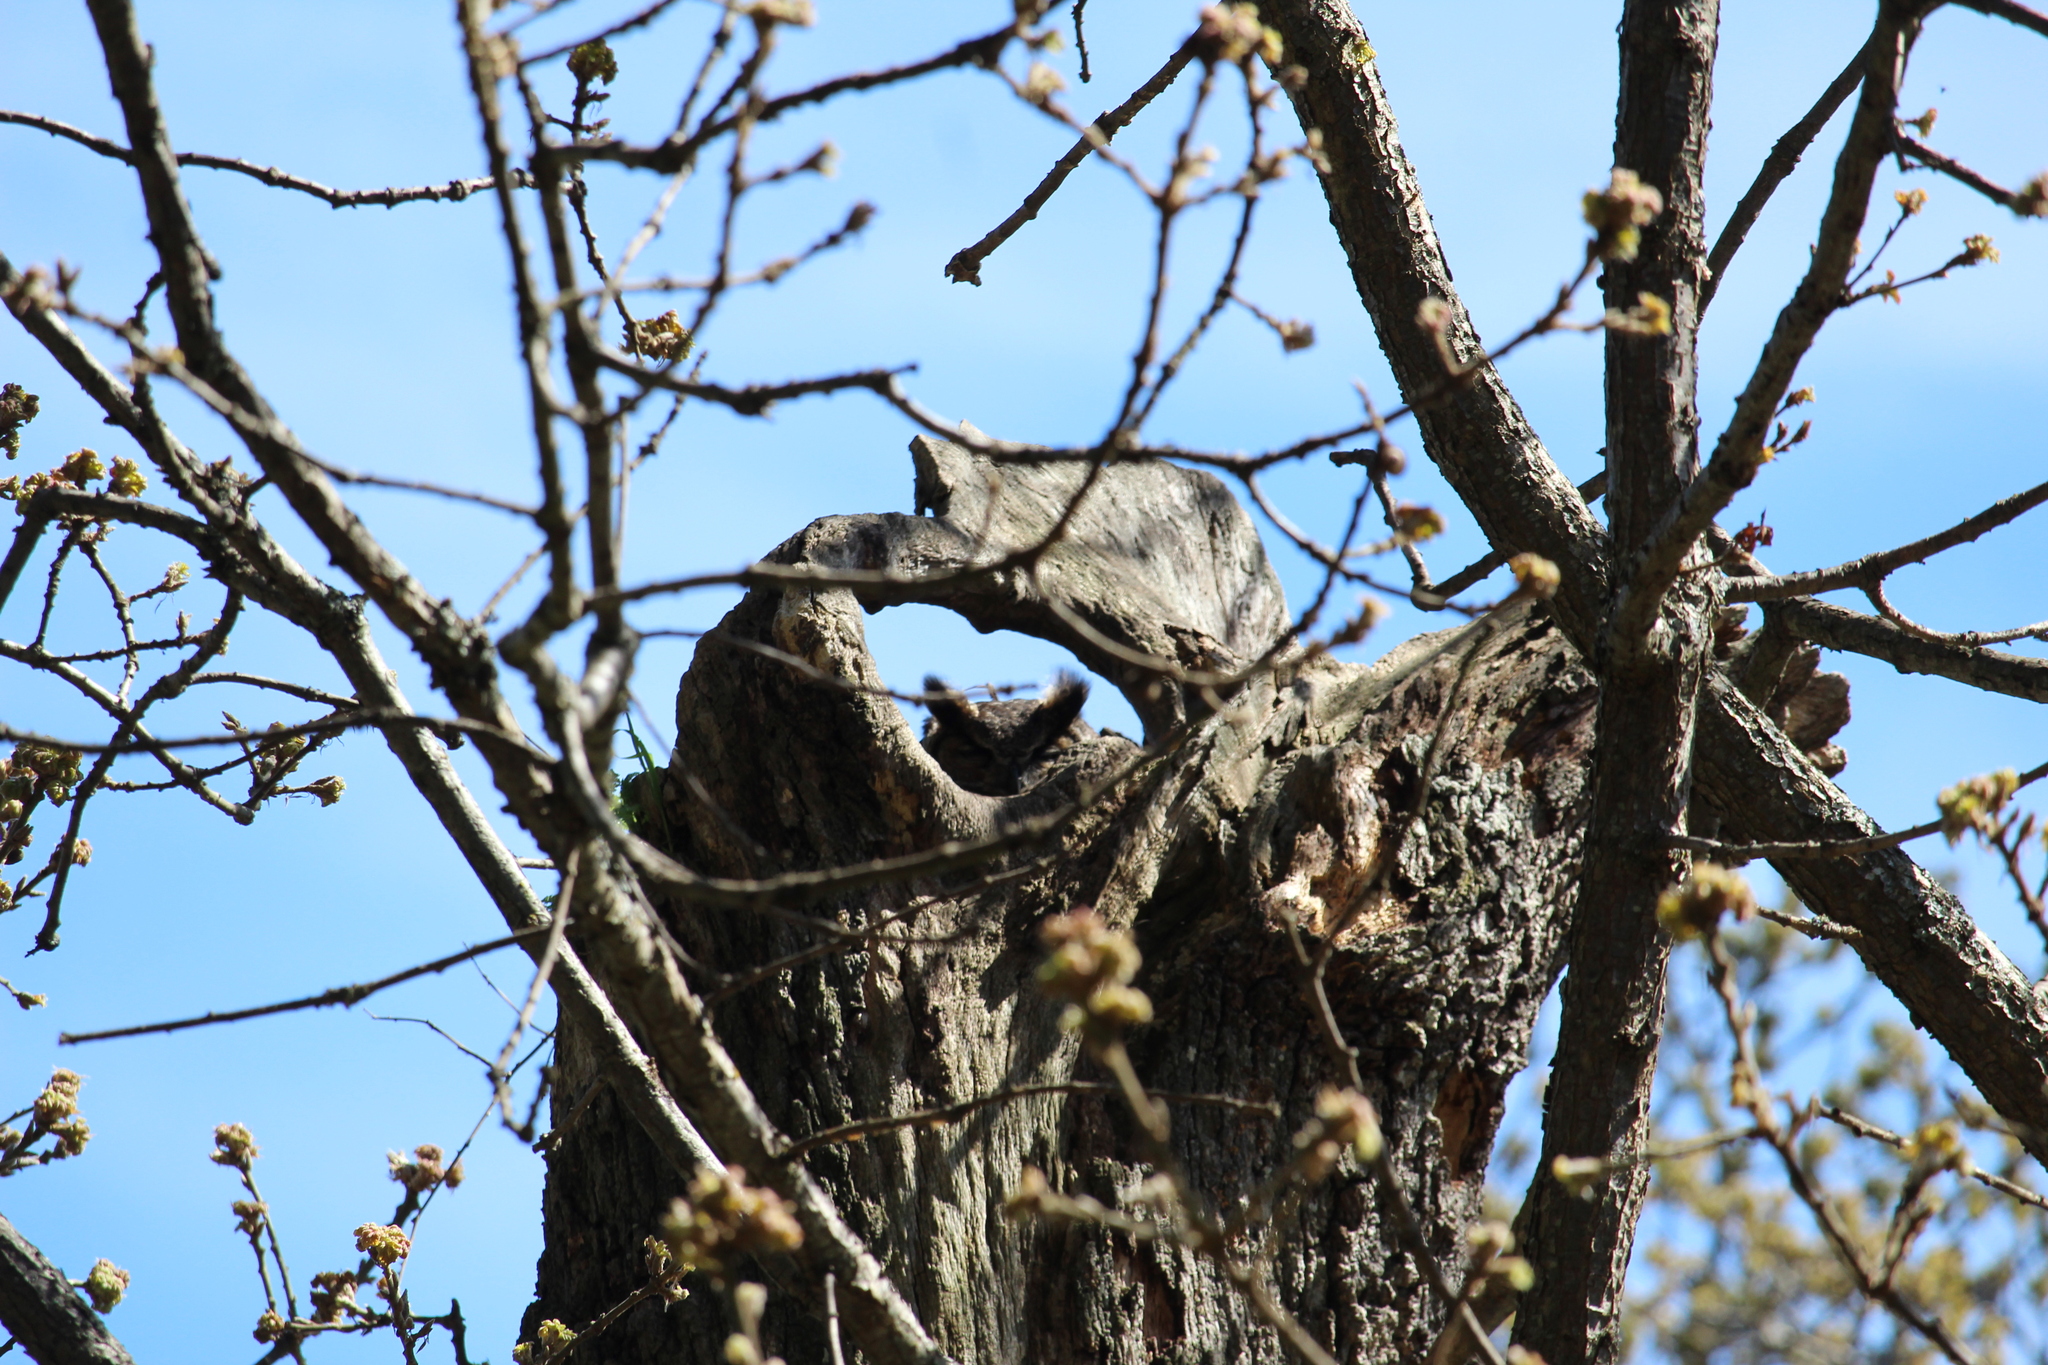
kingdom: Animalia
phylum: Chordata
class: Aves
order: Strigiformes
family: Strigidae
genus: Bubo
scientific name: Bubo virginianus
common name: Great horned owl
